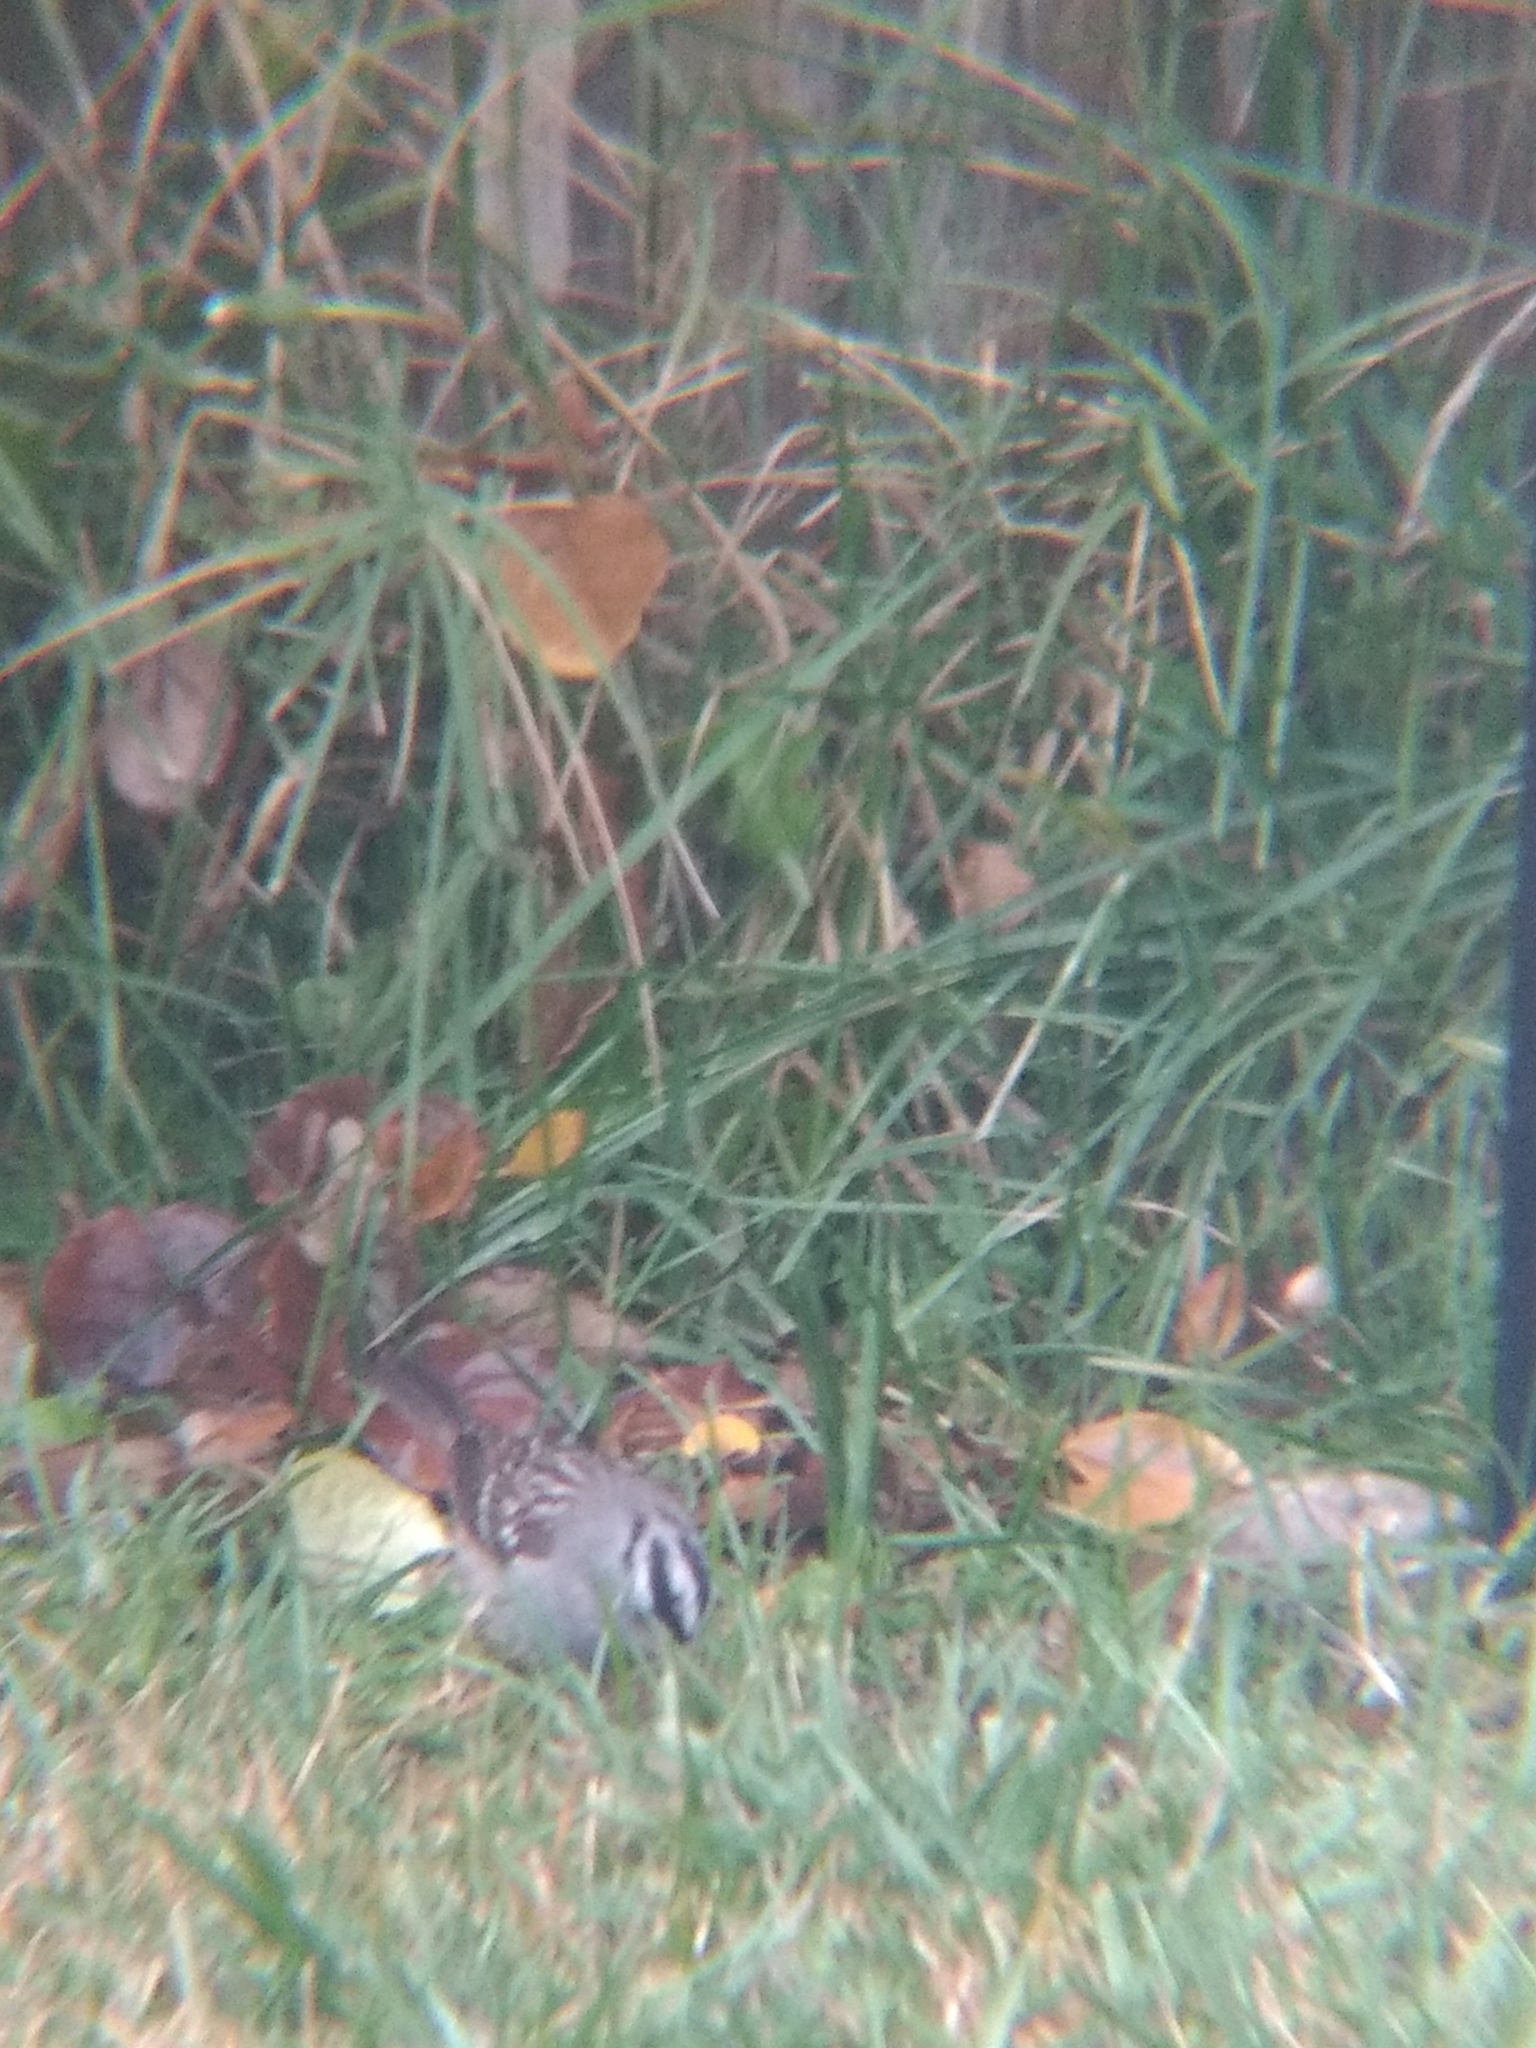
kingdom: Animalia
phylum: Chordata
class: Aves
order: Passeriformes
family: Passerellidae
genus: Zonotrichia
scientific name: Zonotrichia leucophrys
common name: White-crowned sparrow
